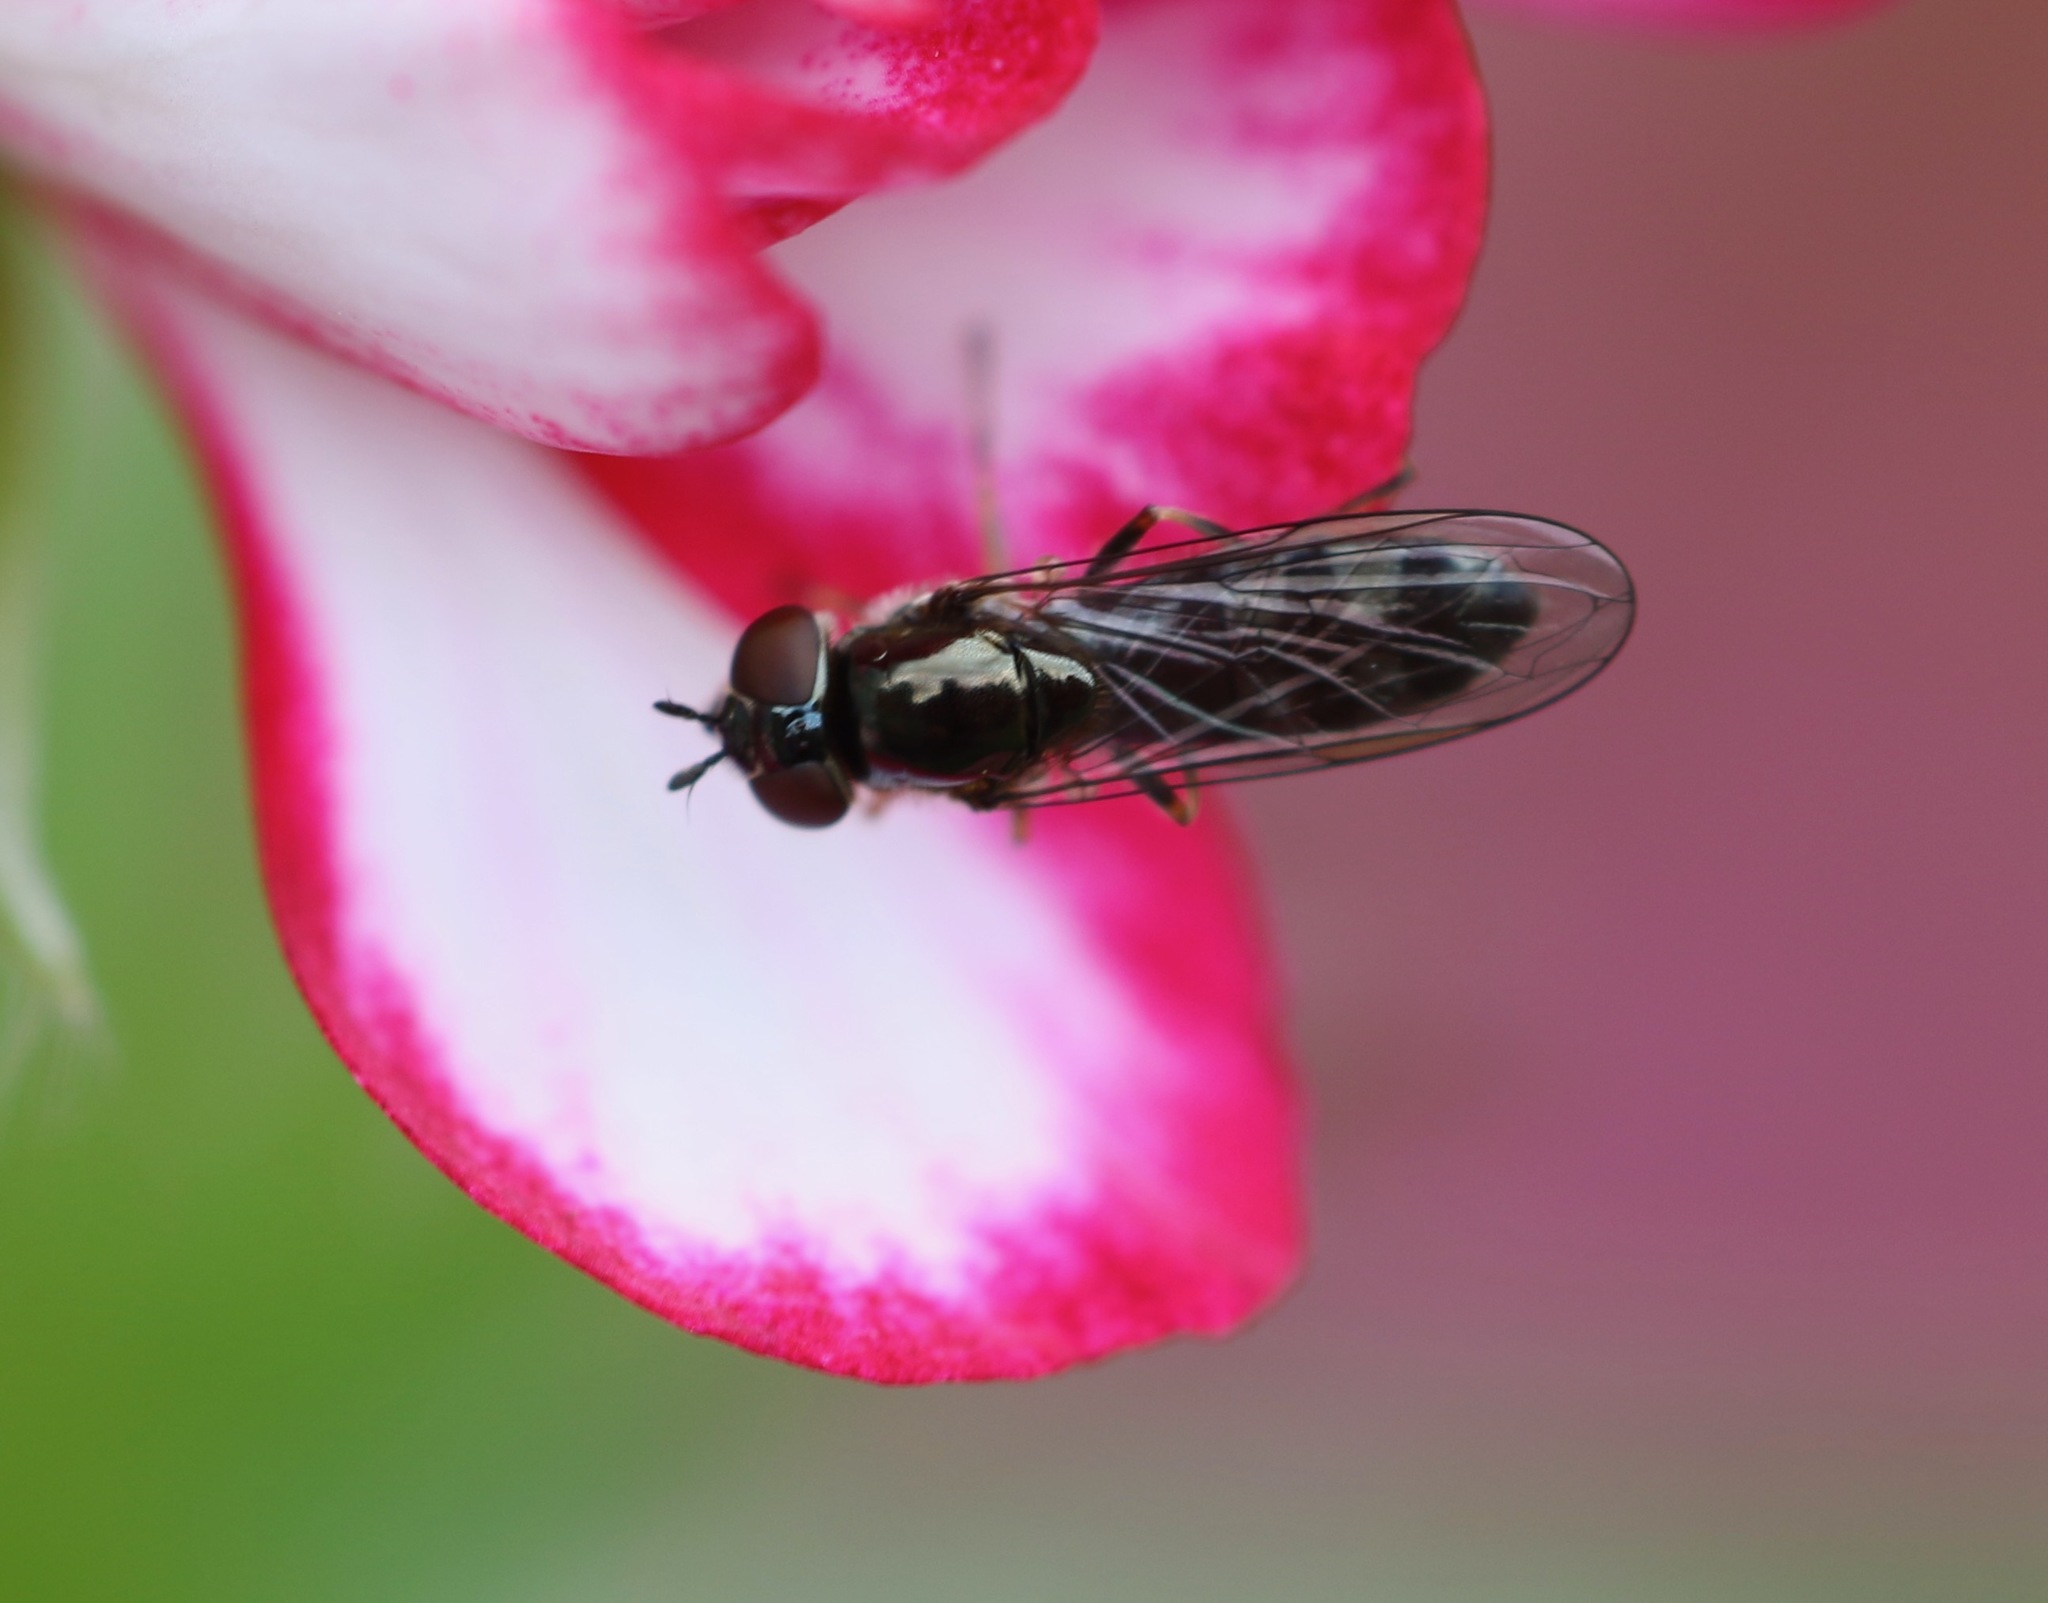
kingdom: Animalia
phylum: Arthropoda
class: Insecta
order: Diptera
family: Syrphidae
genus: Platycheirus
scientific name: Platycheirus albimanus
